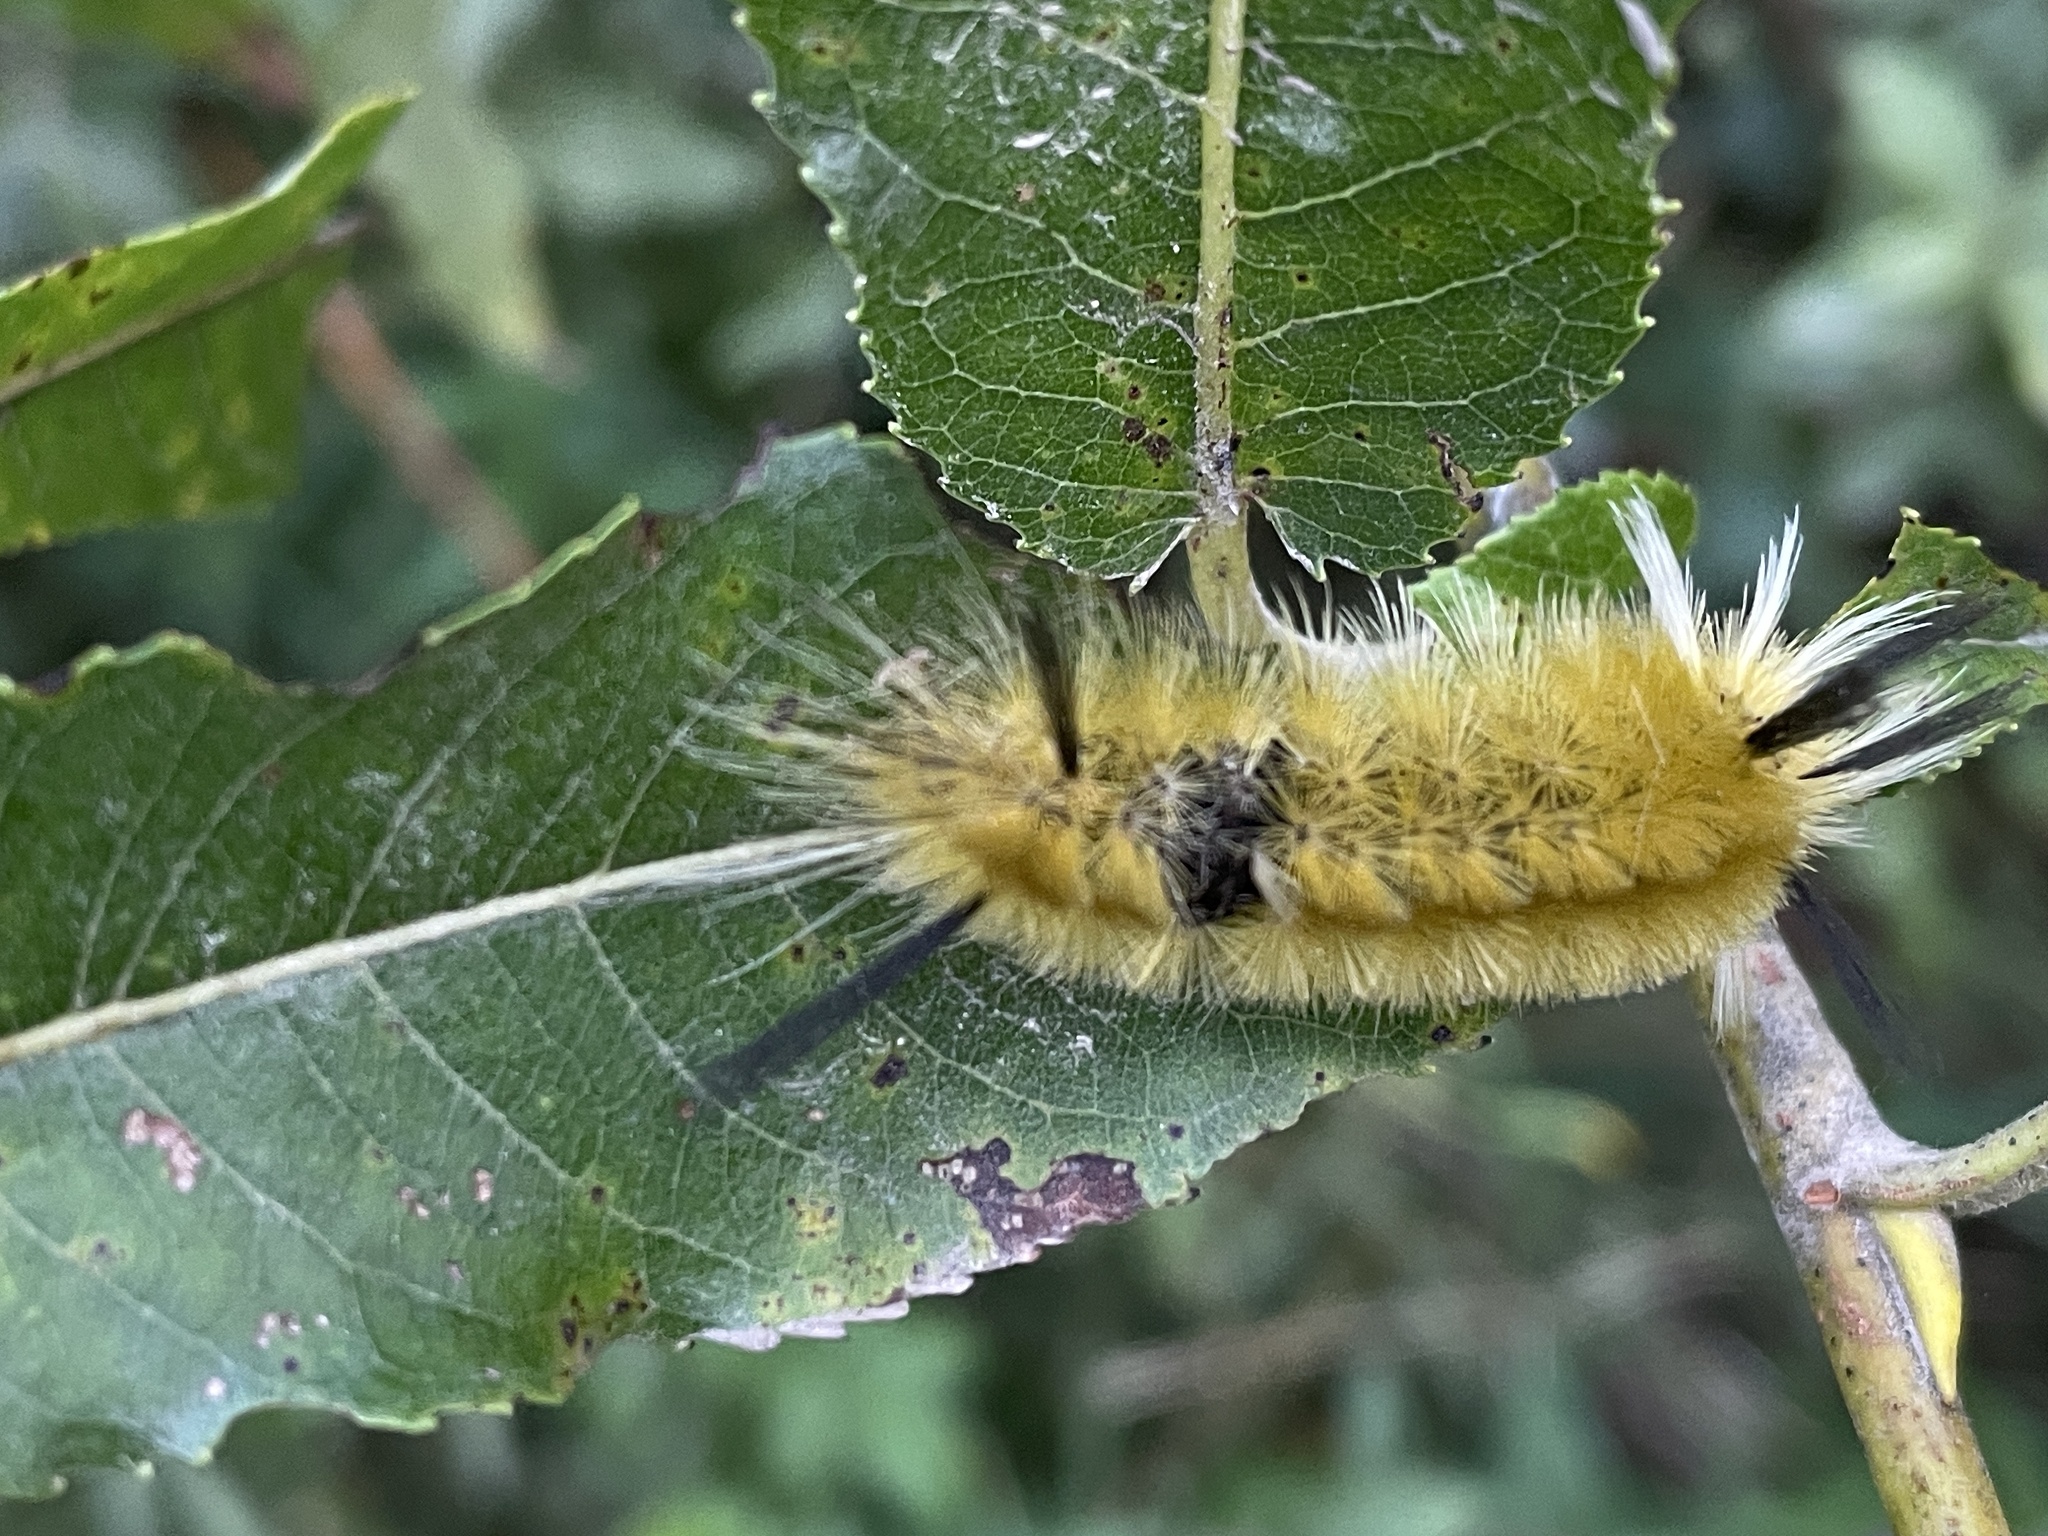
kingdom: Animalia
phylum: Arthropoda
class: Insecta
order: Lepidoptera
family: Erebidae
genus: Halysidota
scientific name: Halysidota tessellaris
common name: Banded tussock moth
